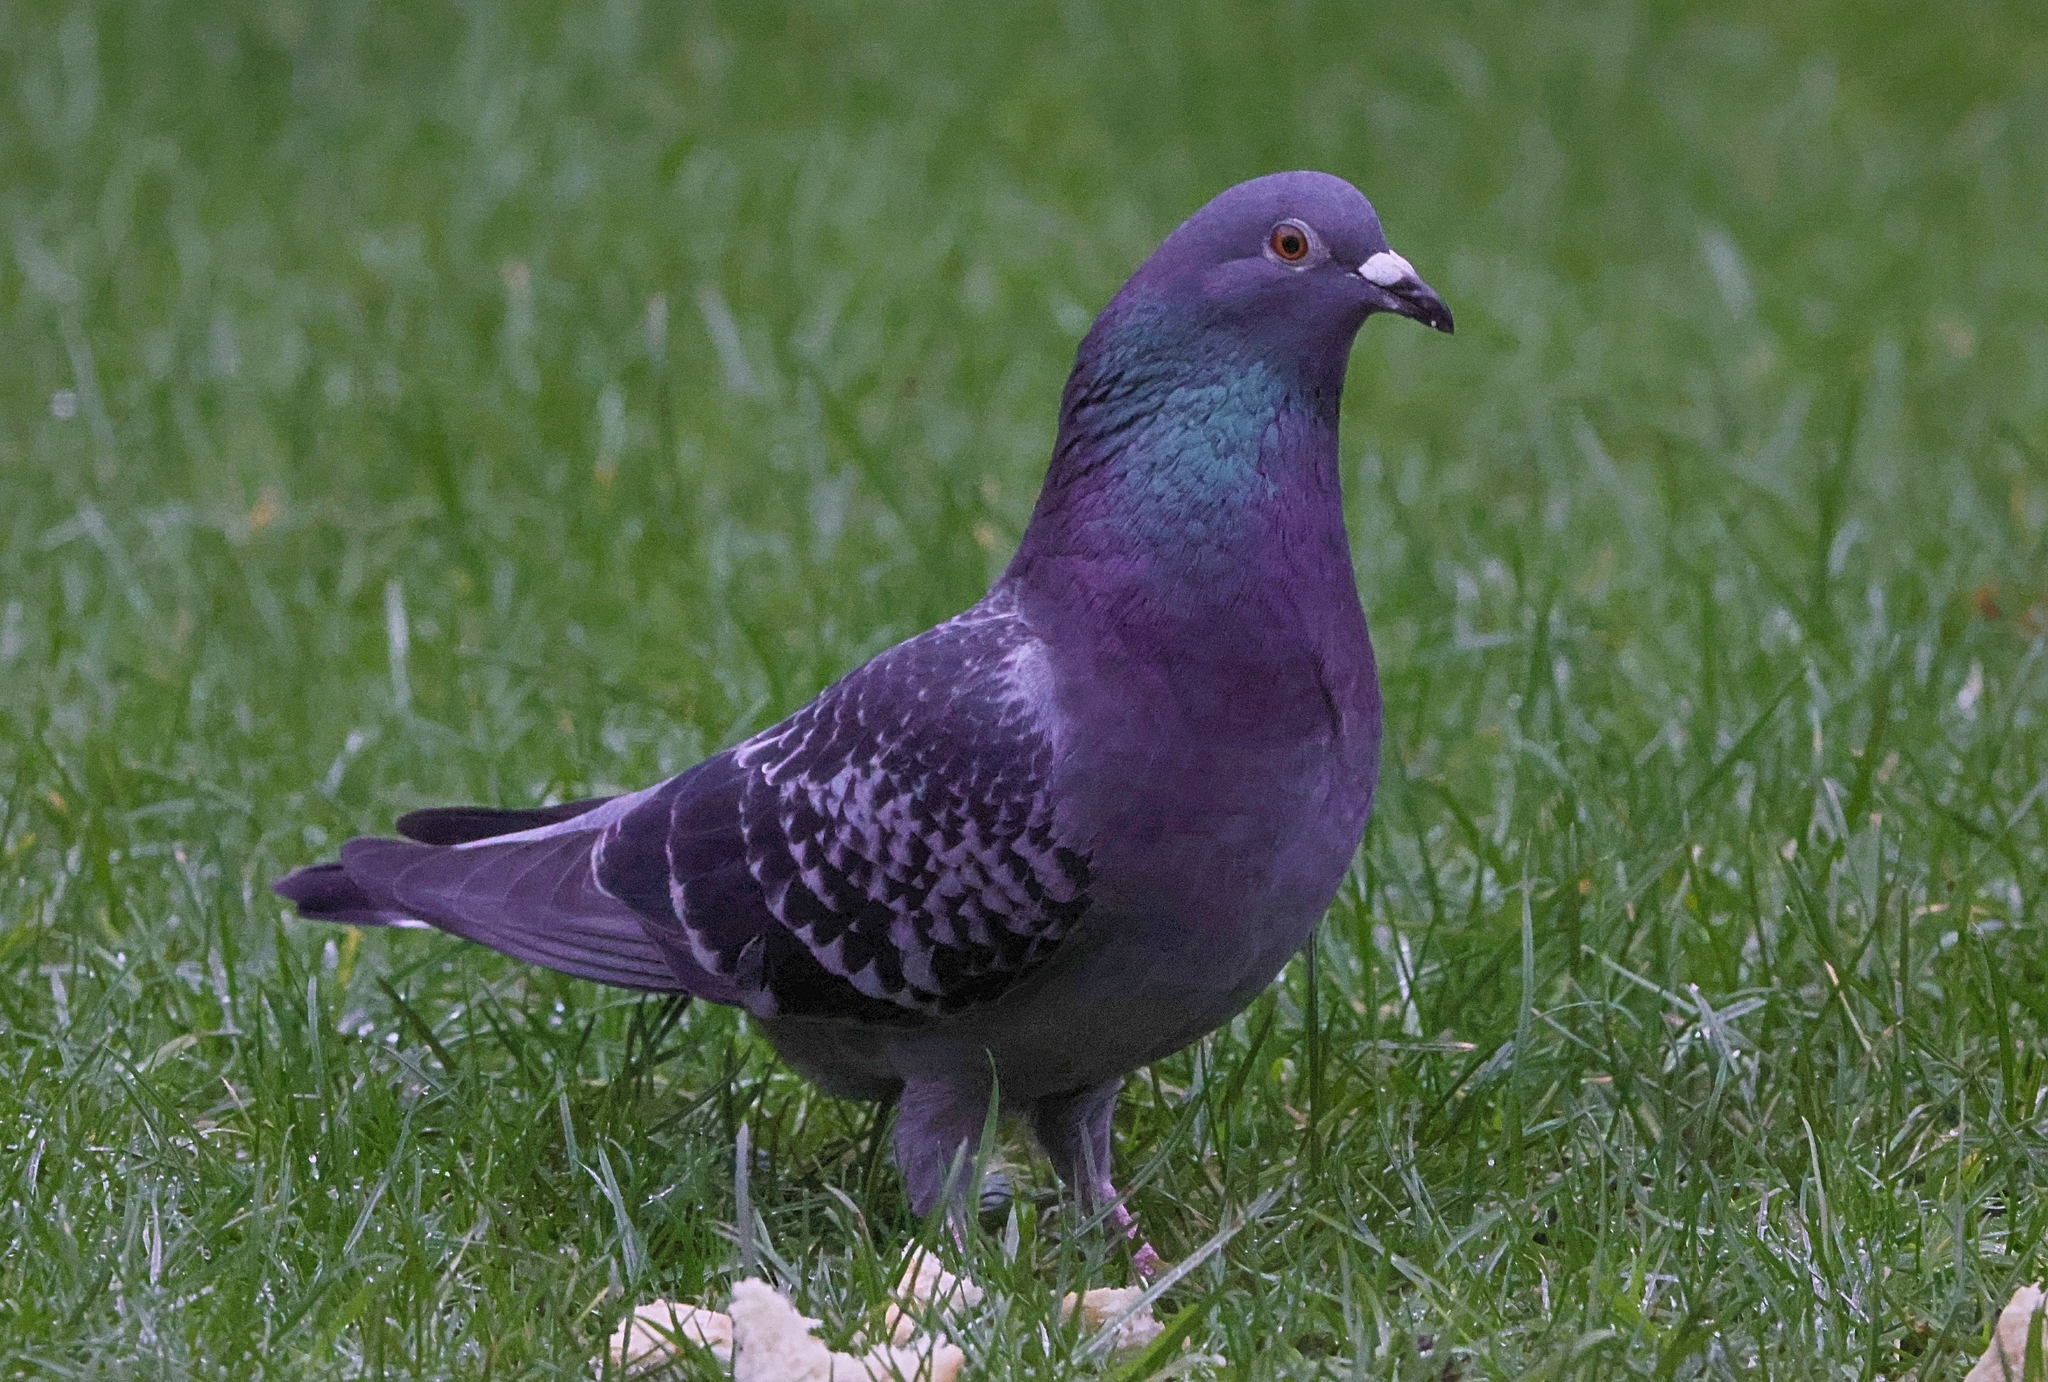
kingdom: Animalia
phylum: Chordata
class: Aves
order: Columbiformes
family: Columbidae
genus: Columba
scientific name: Columba livia
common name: Rock pigeon
